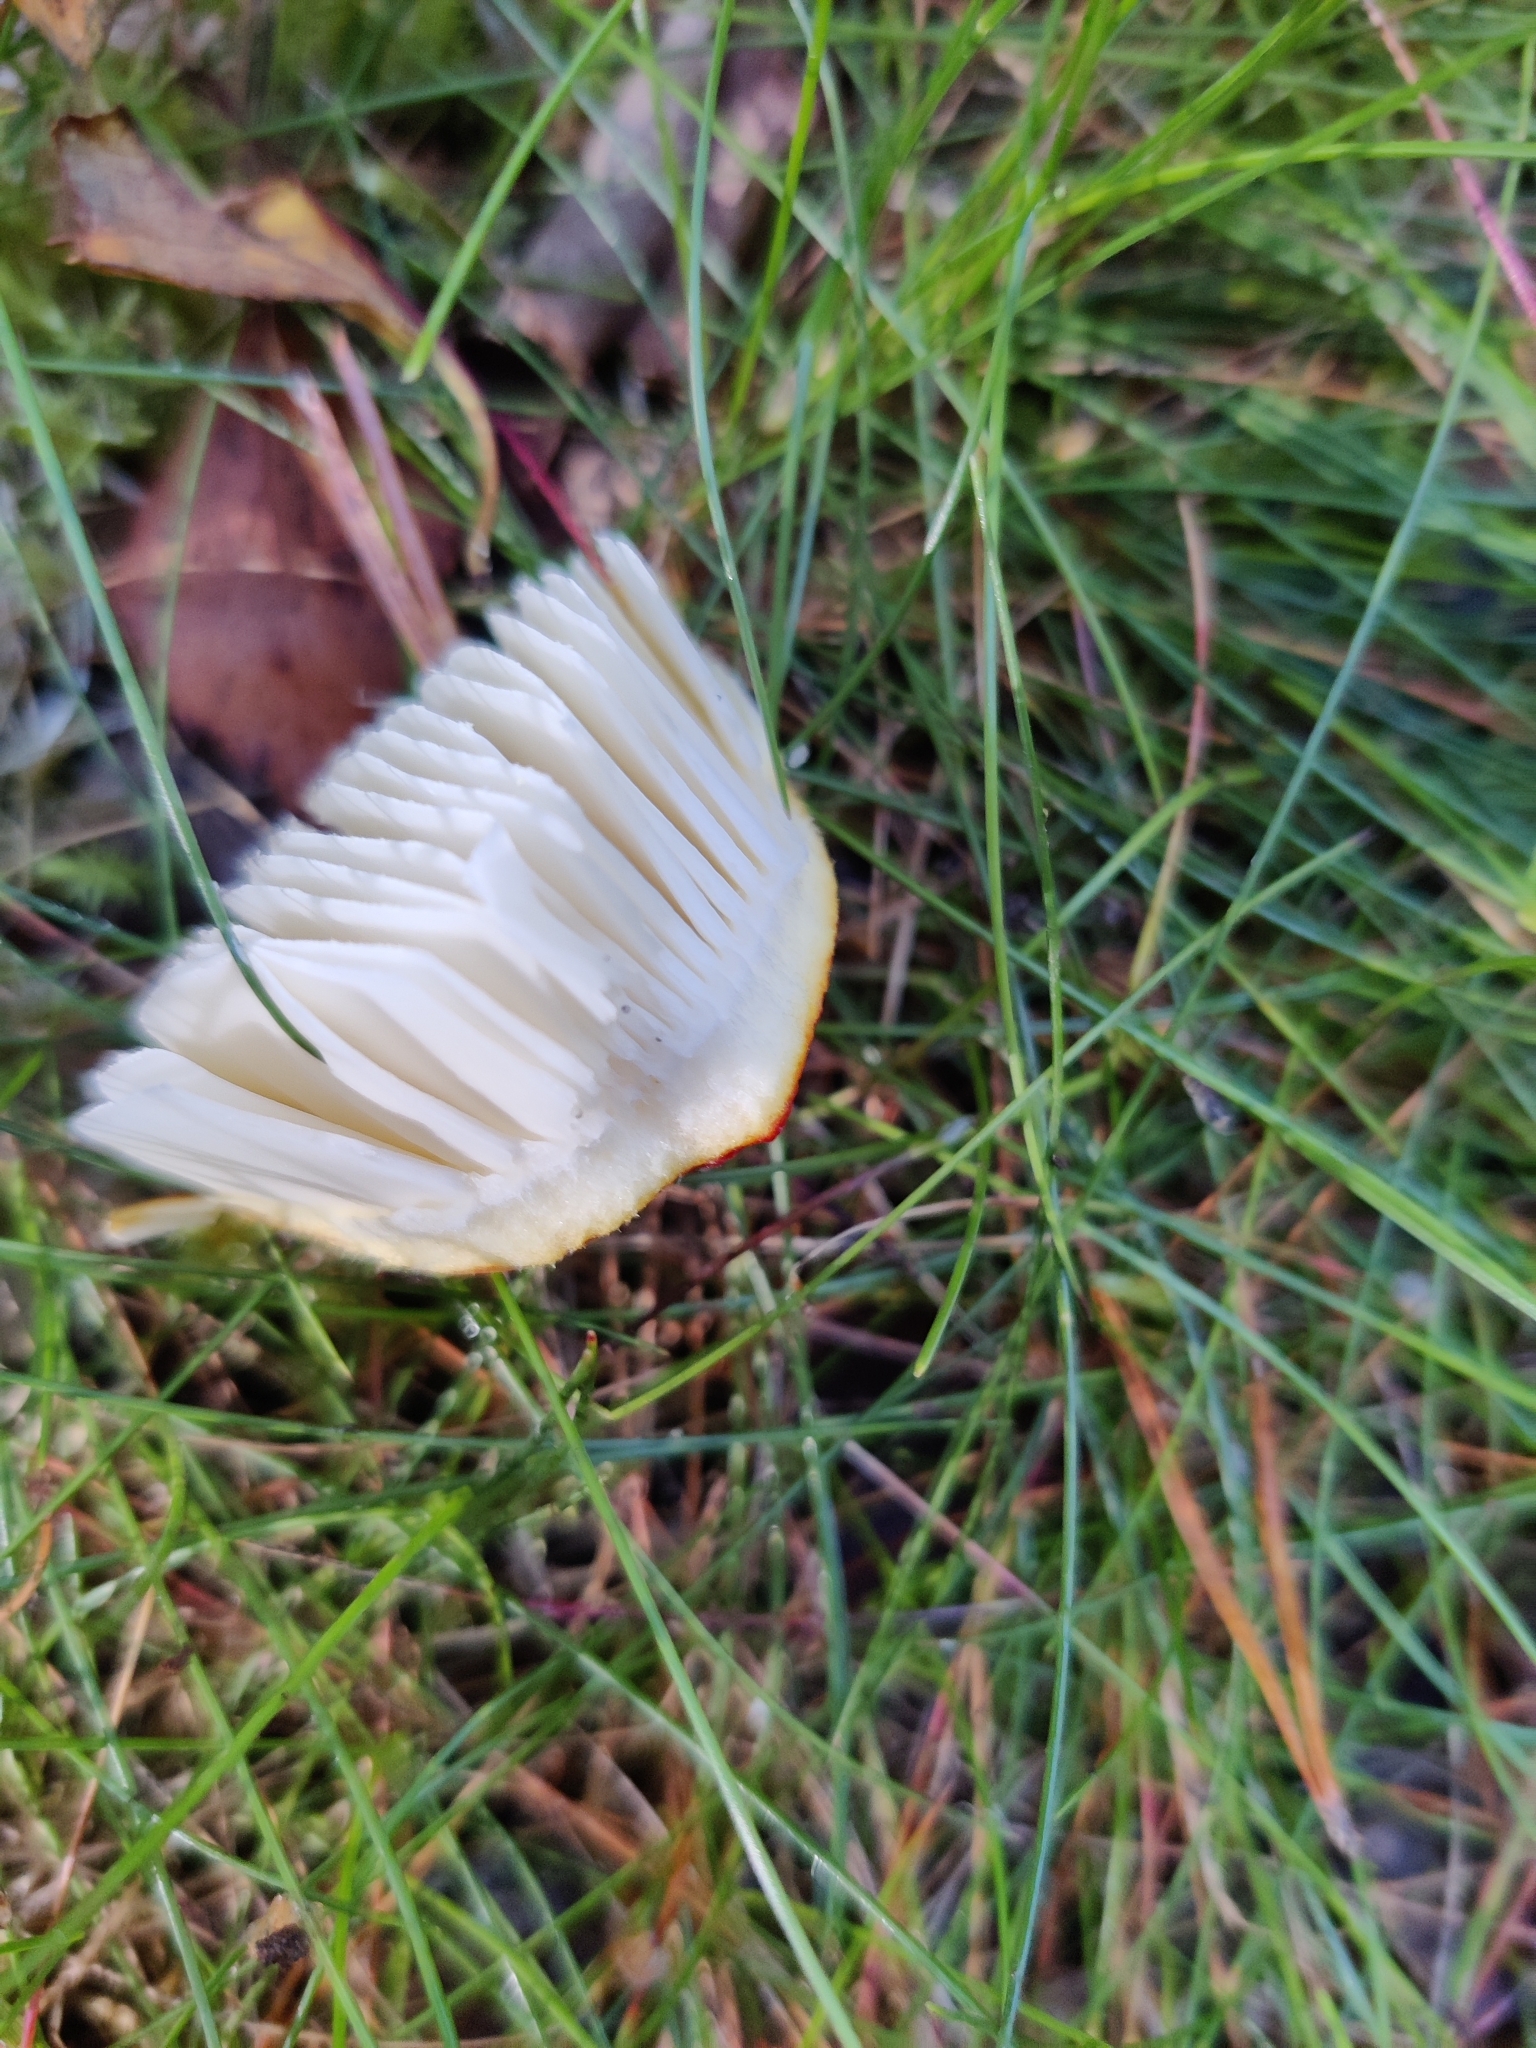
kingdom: Fungi
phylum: Basidiomycota
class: Agaricomycetes
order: Agaricales
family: Amanitaceae
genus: Amanita
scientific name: Amanita muscaria
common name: Fly agaric
